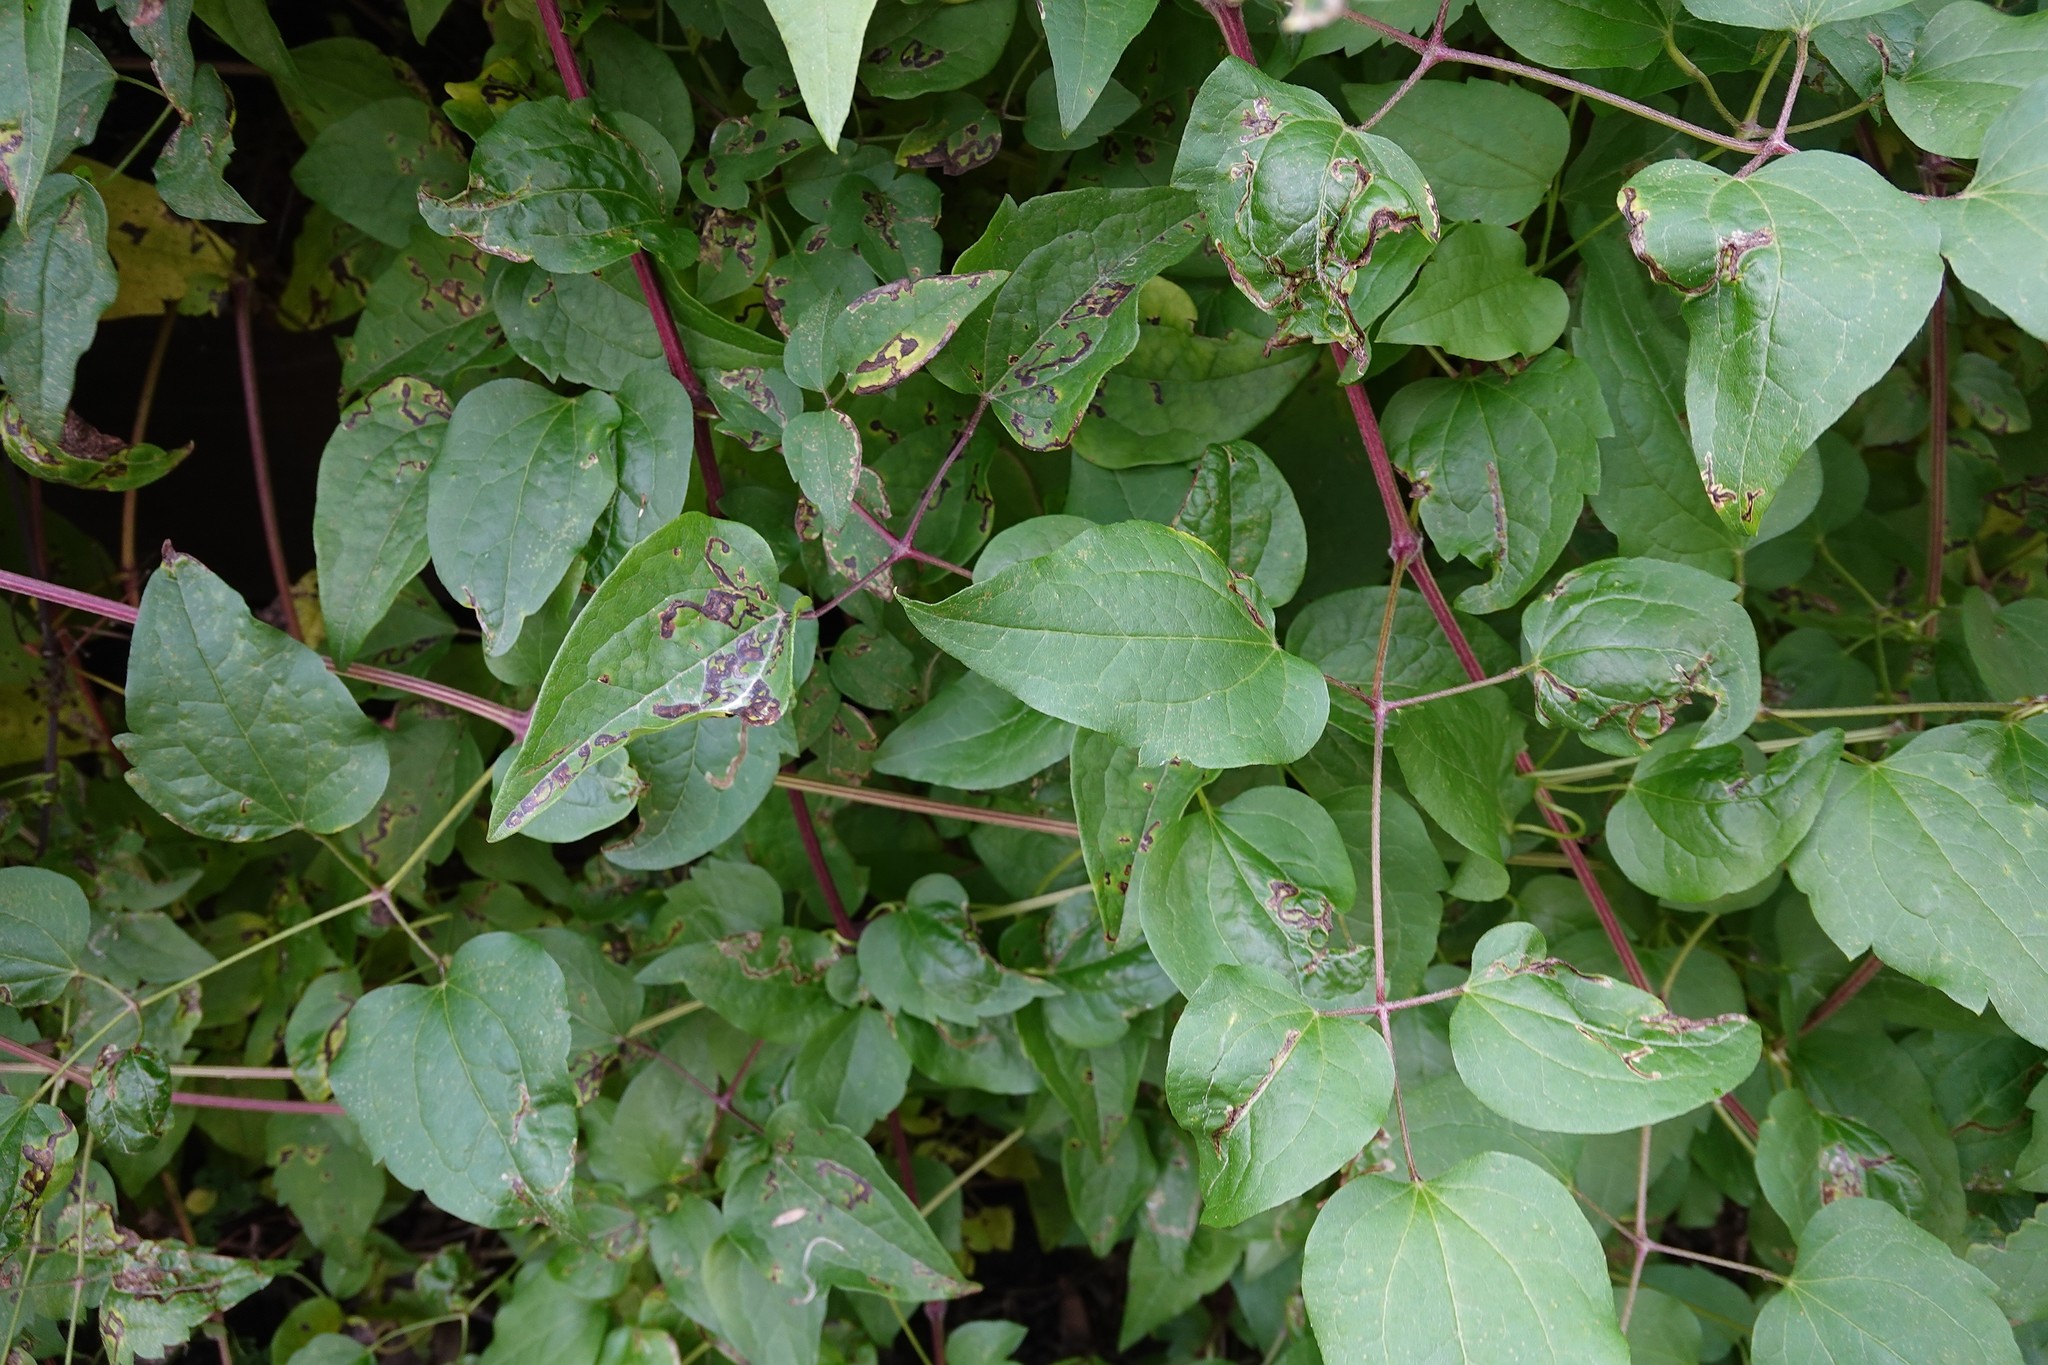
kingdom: Animalia
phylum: Arthropoda
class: Insecta
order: Diptera
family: Agromyzidae
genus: Phytomyza
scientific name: Phytomyza vitalbae
